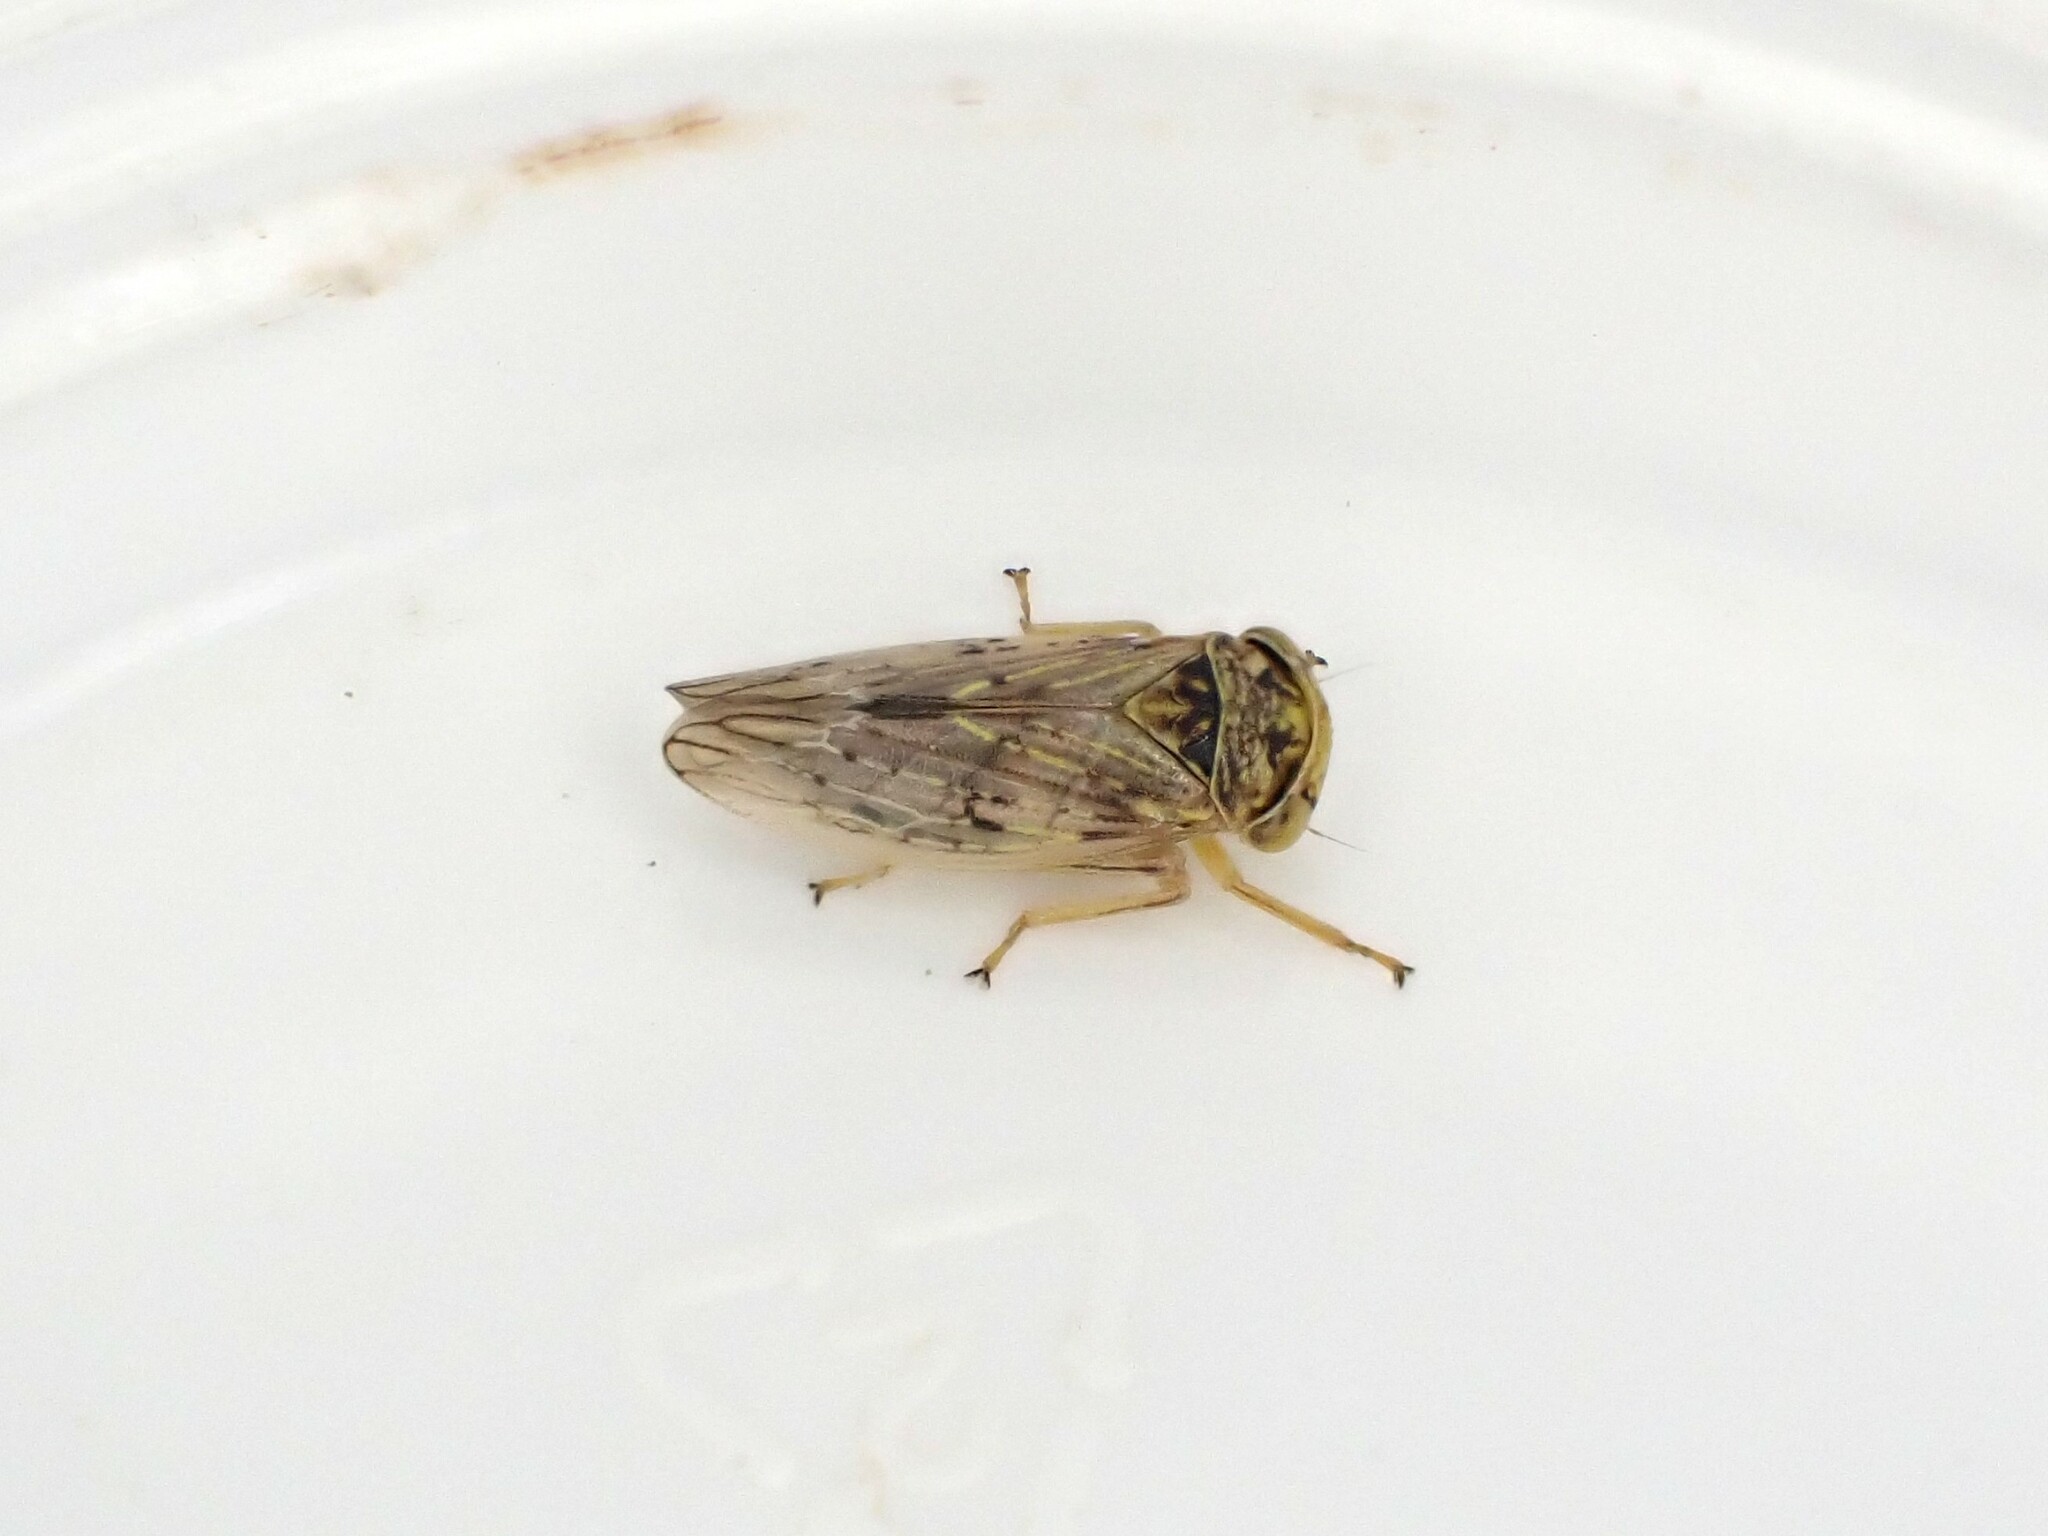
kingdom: Animalia
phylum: Arthropoda
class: Insecta
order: Hemiptera
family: Cicadellidae
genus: Rhytidodus
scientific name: Rhytidodus decimusquartus
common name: Leafhopper
